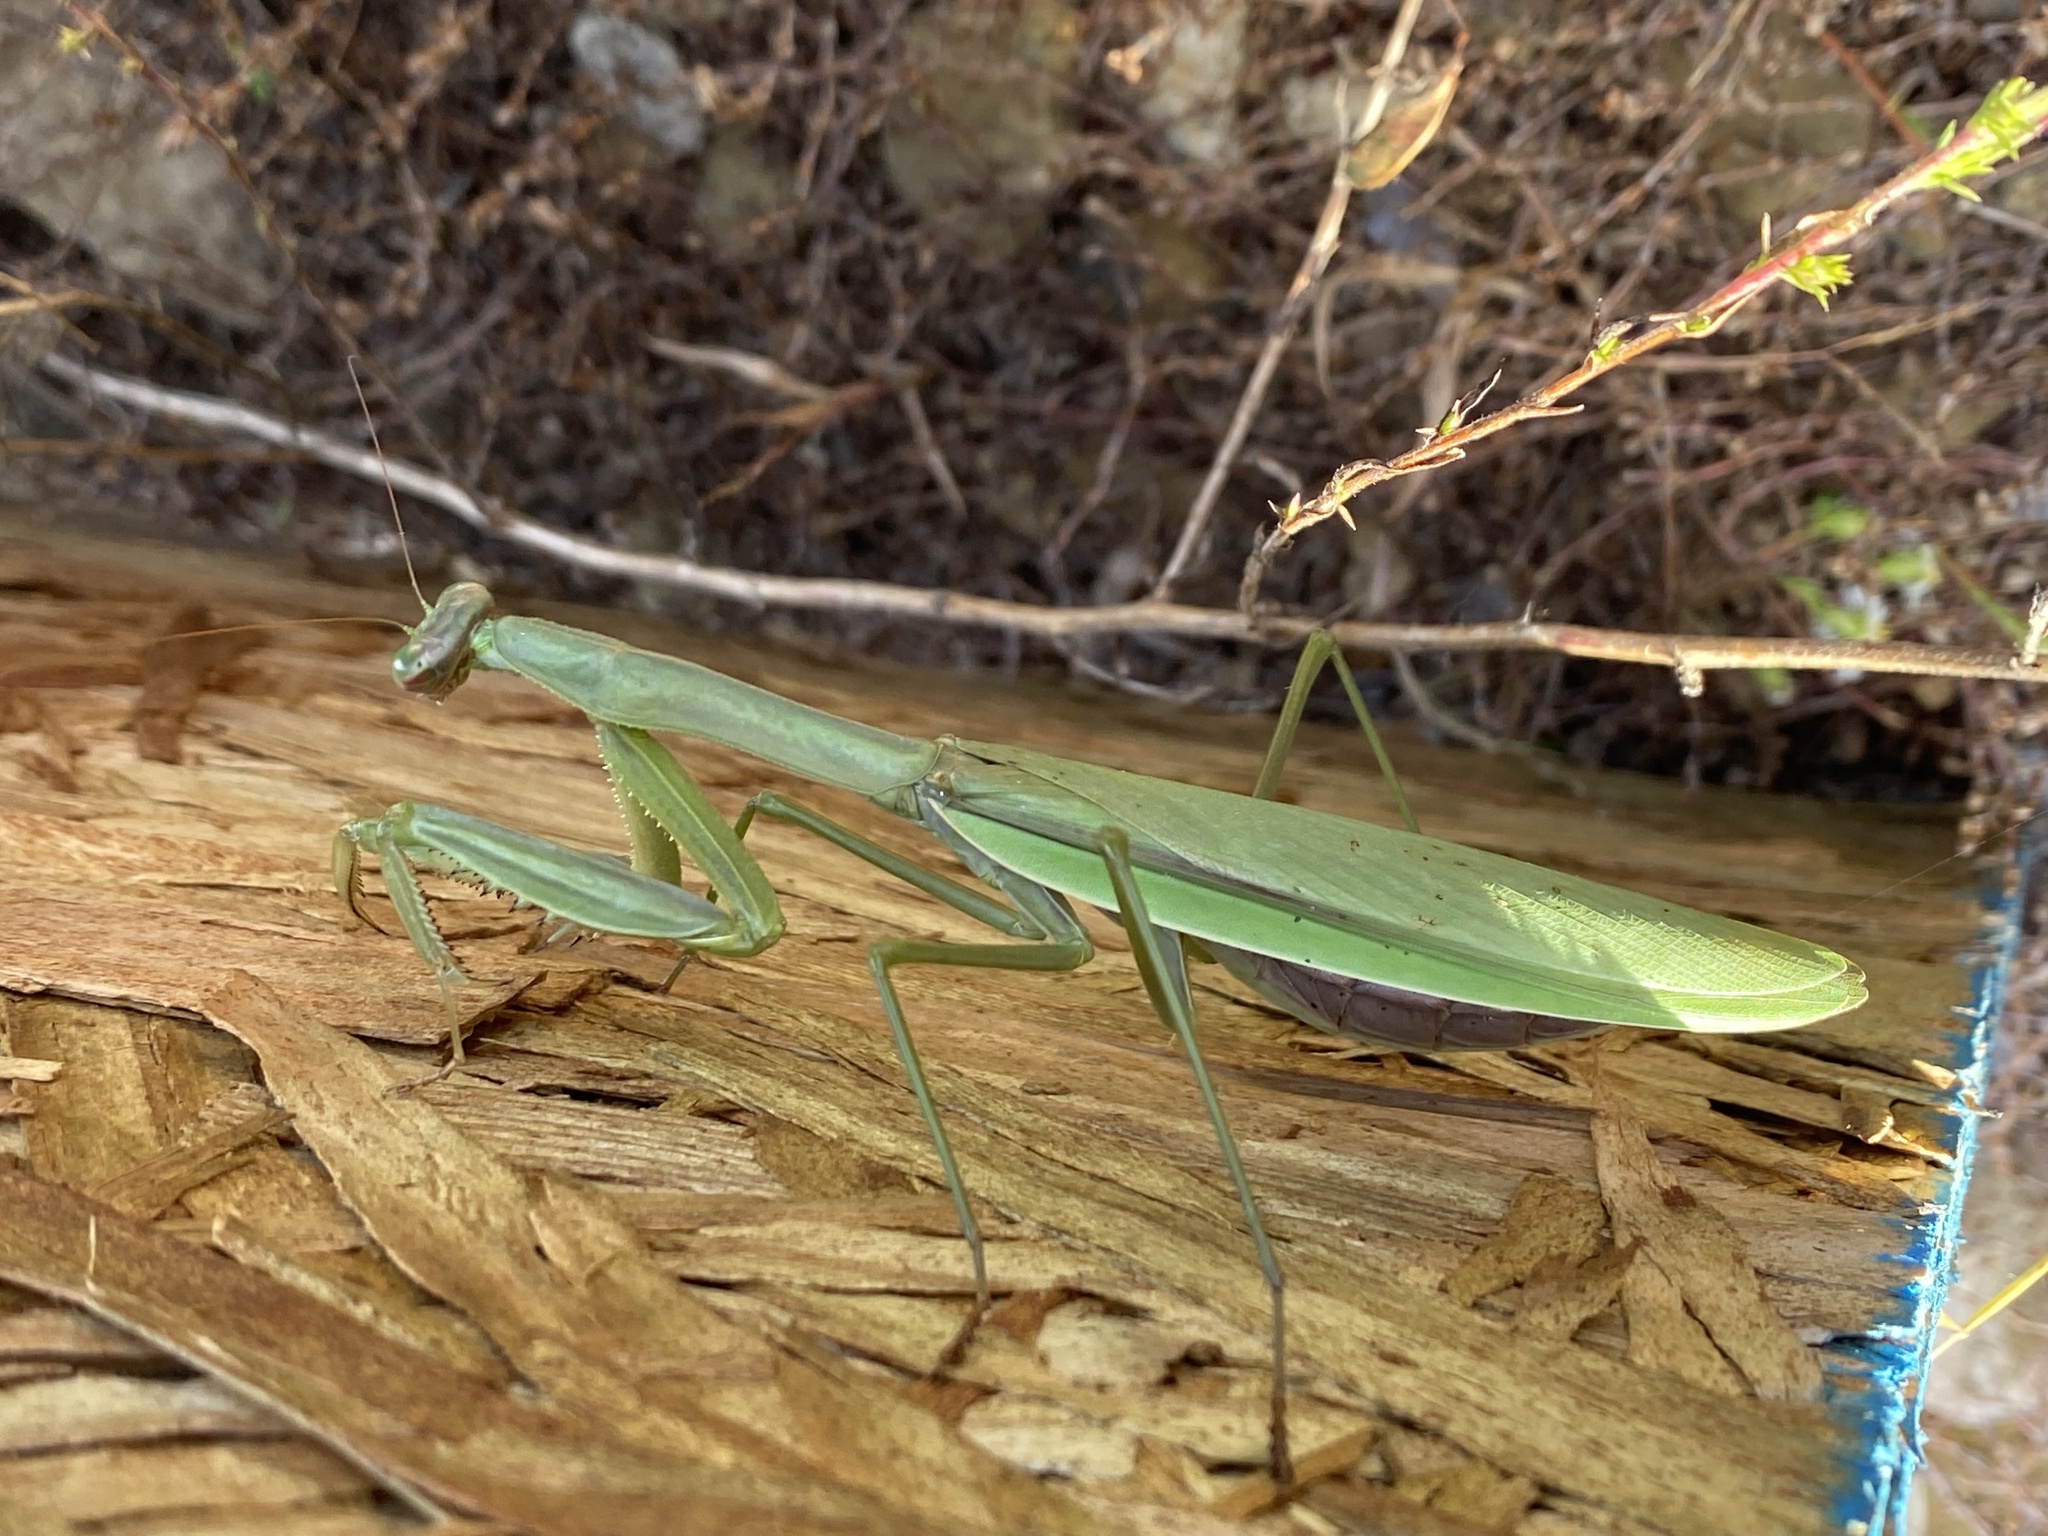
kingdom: Animalia
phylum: Arthropoda
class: Insecta
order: Mantodea
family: Mantidae
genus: Tenodera
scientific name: Tenodera sinensis
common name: Chinese mantis
